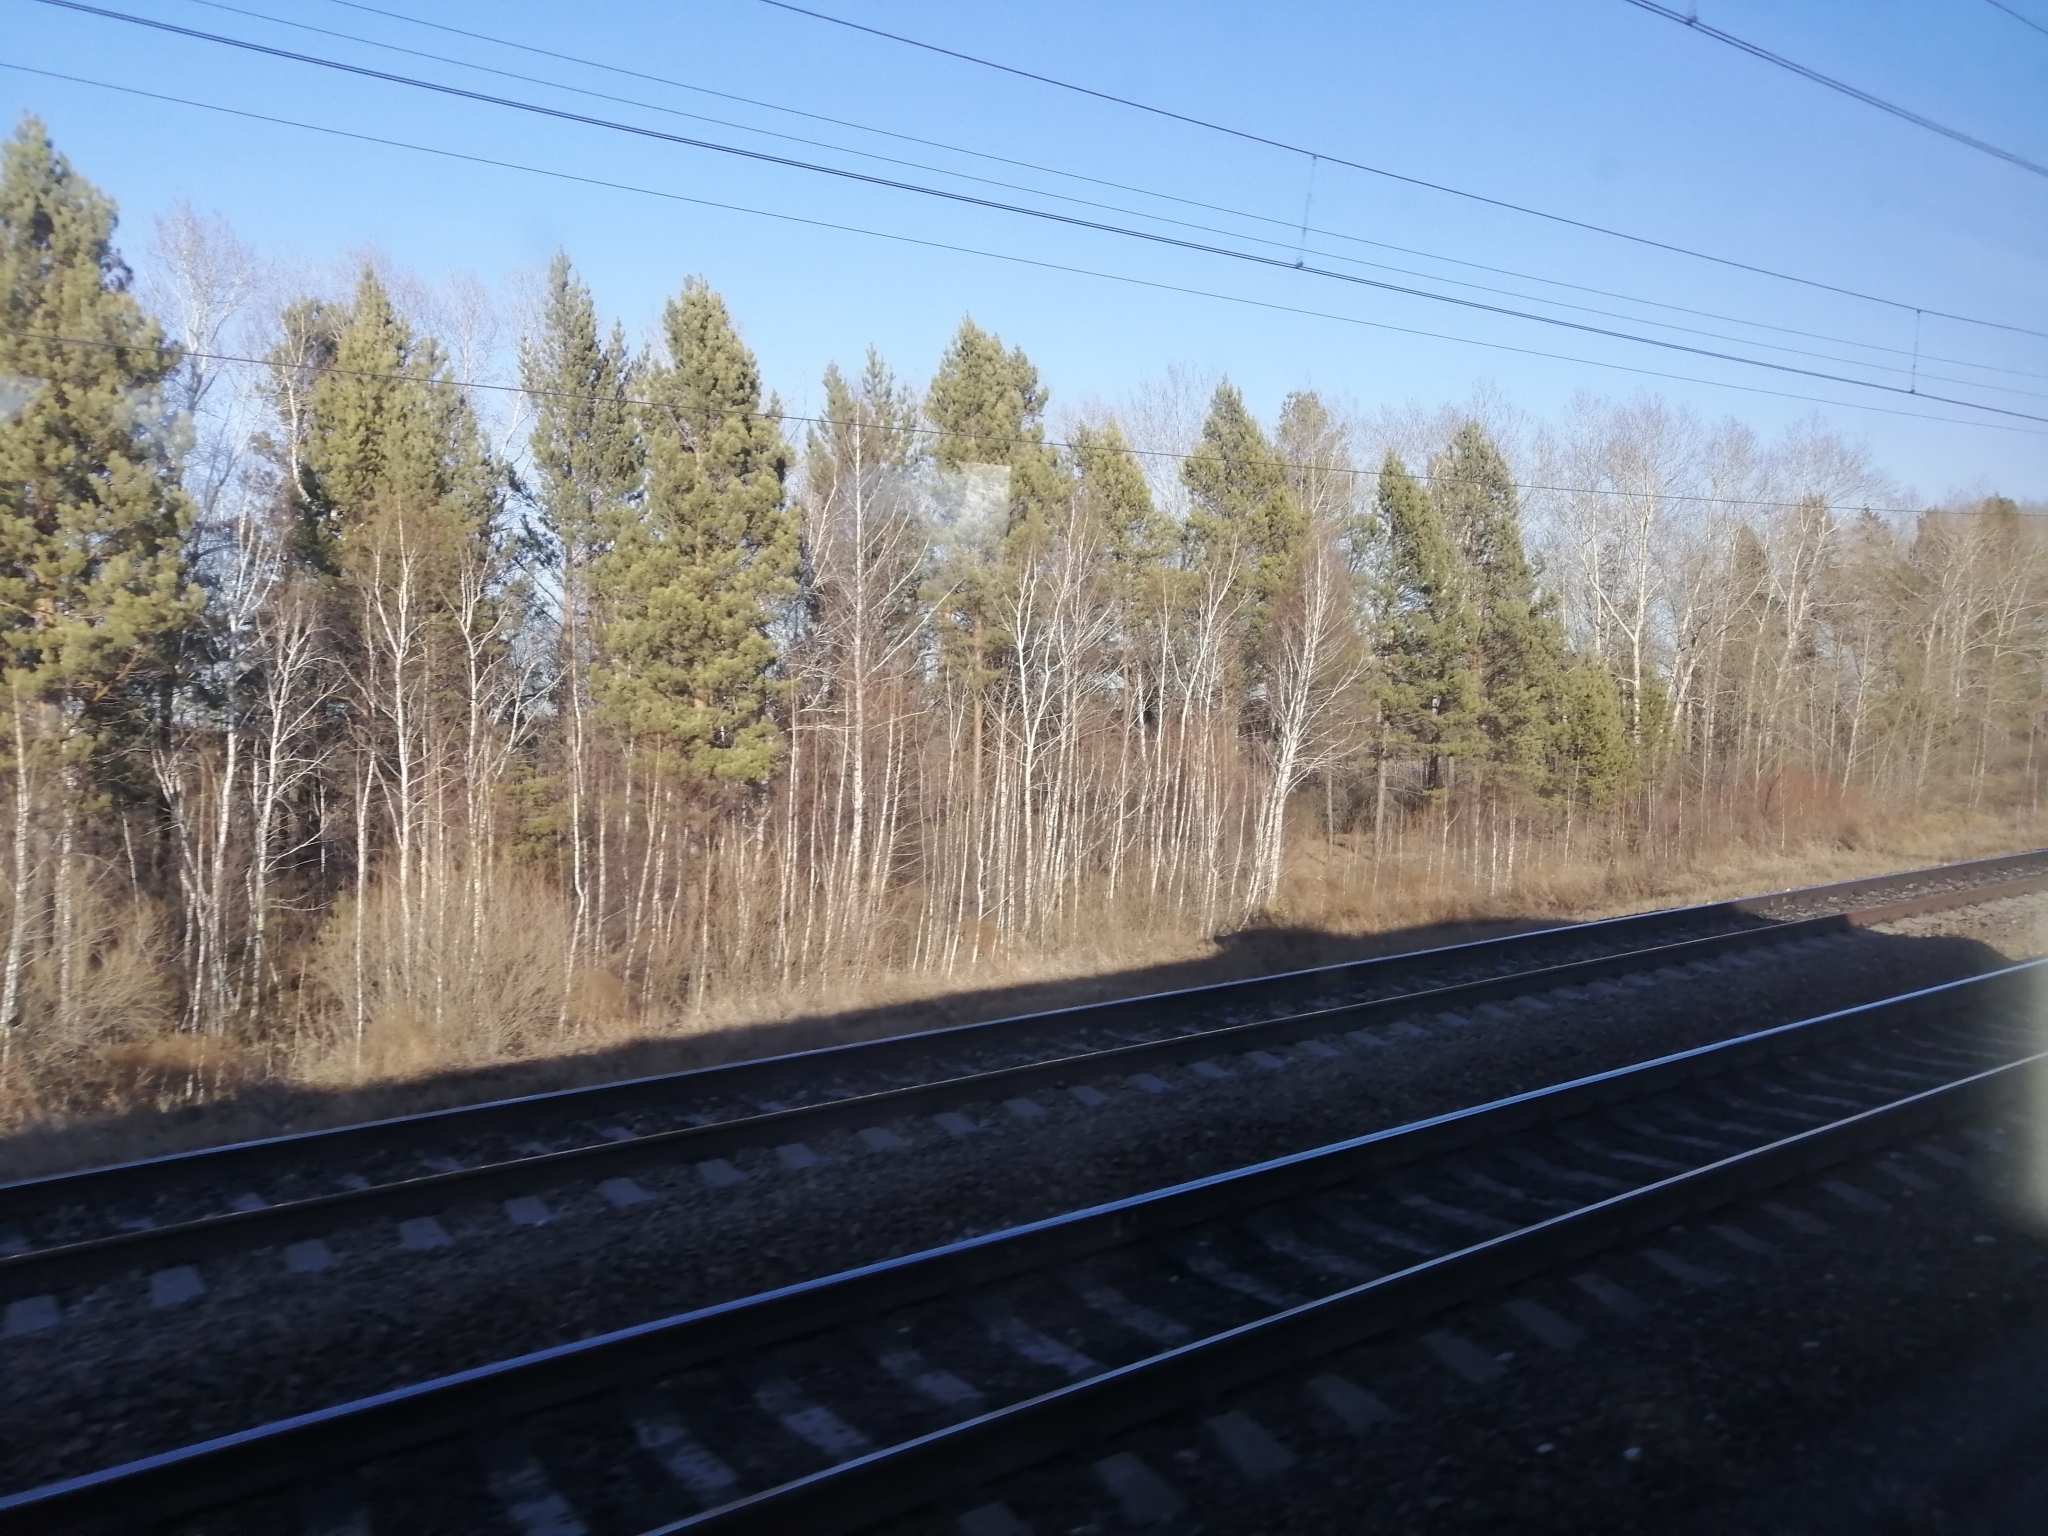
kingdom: Plantae
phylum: Tracheophyta
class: Pinopsida
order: Pinales
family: Pinaceae
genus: Pinus
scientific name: Pinus sylvestris
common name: Scots pine
